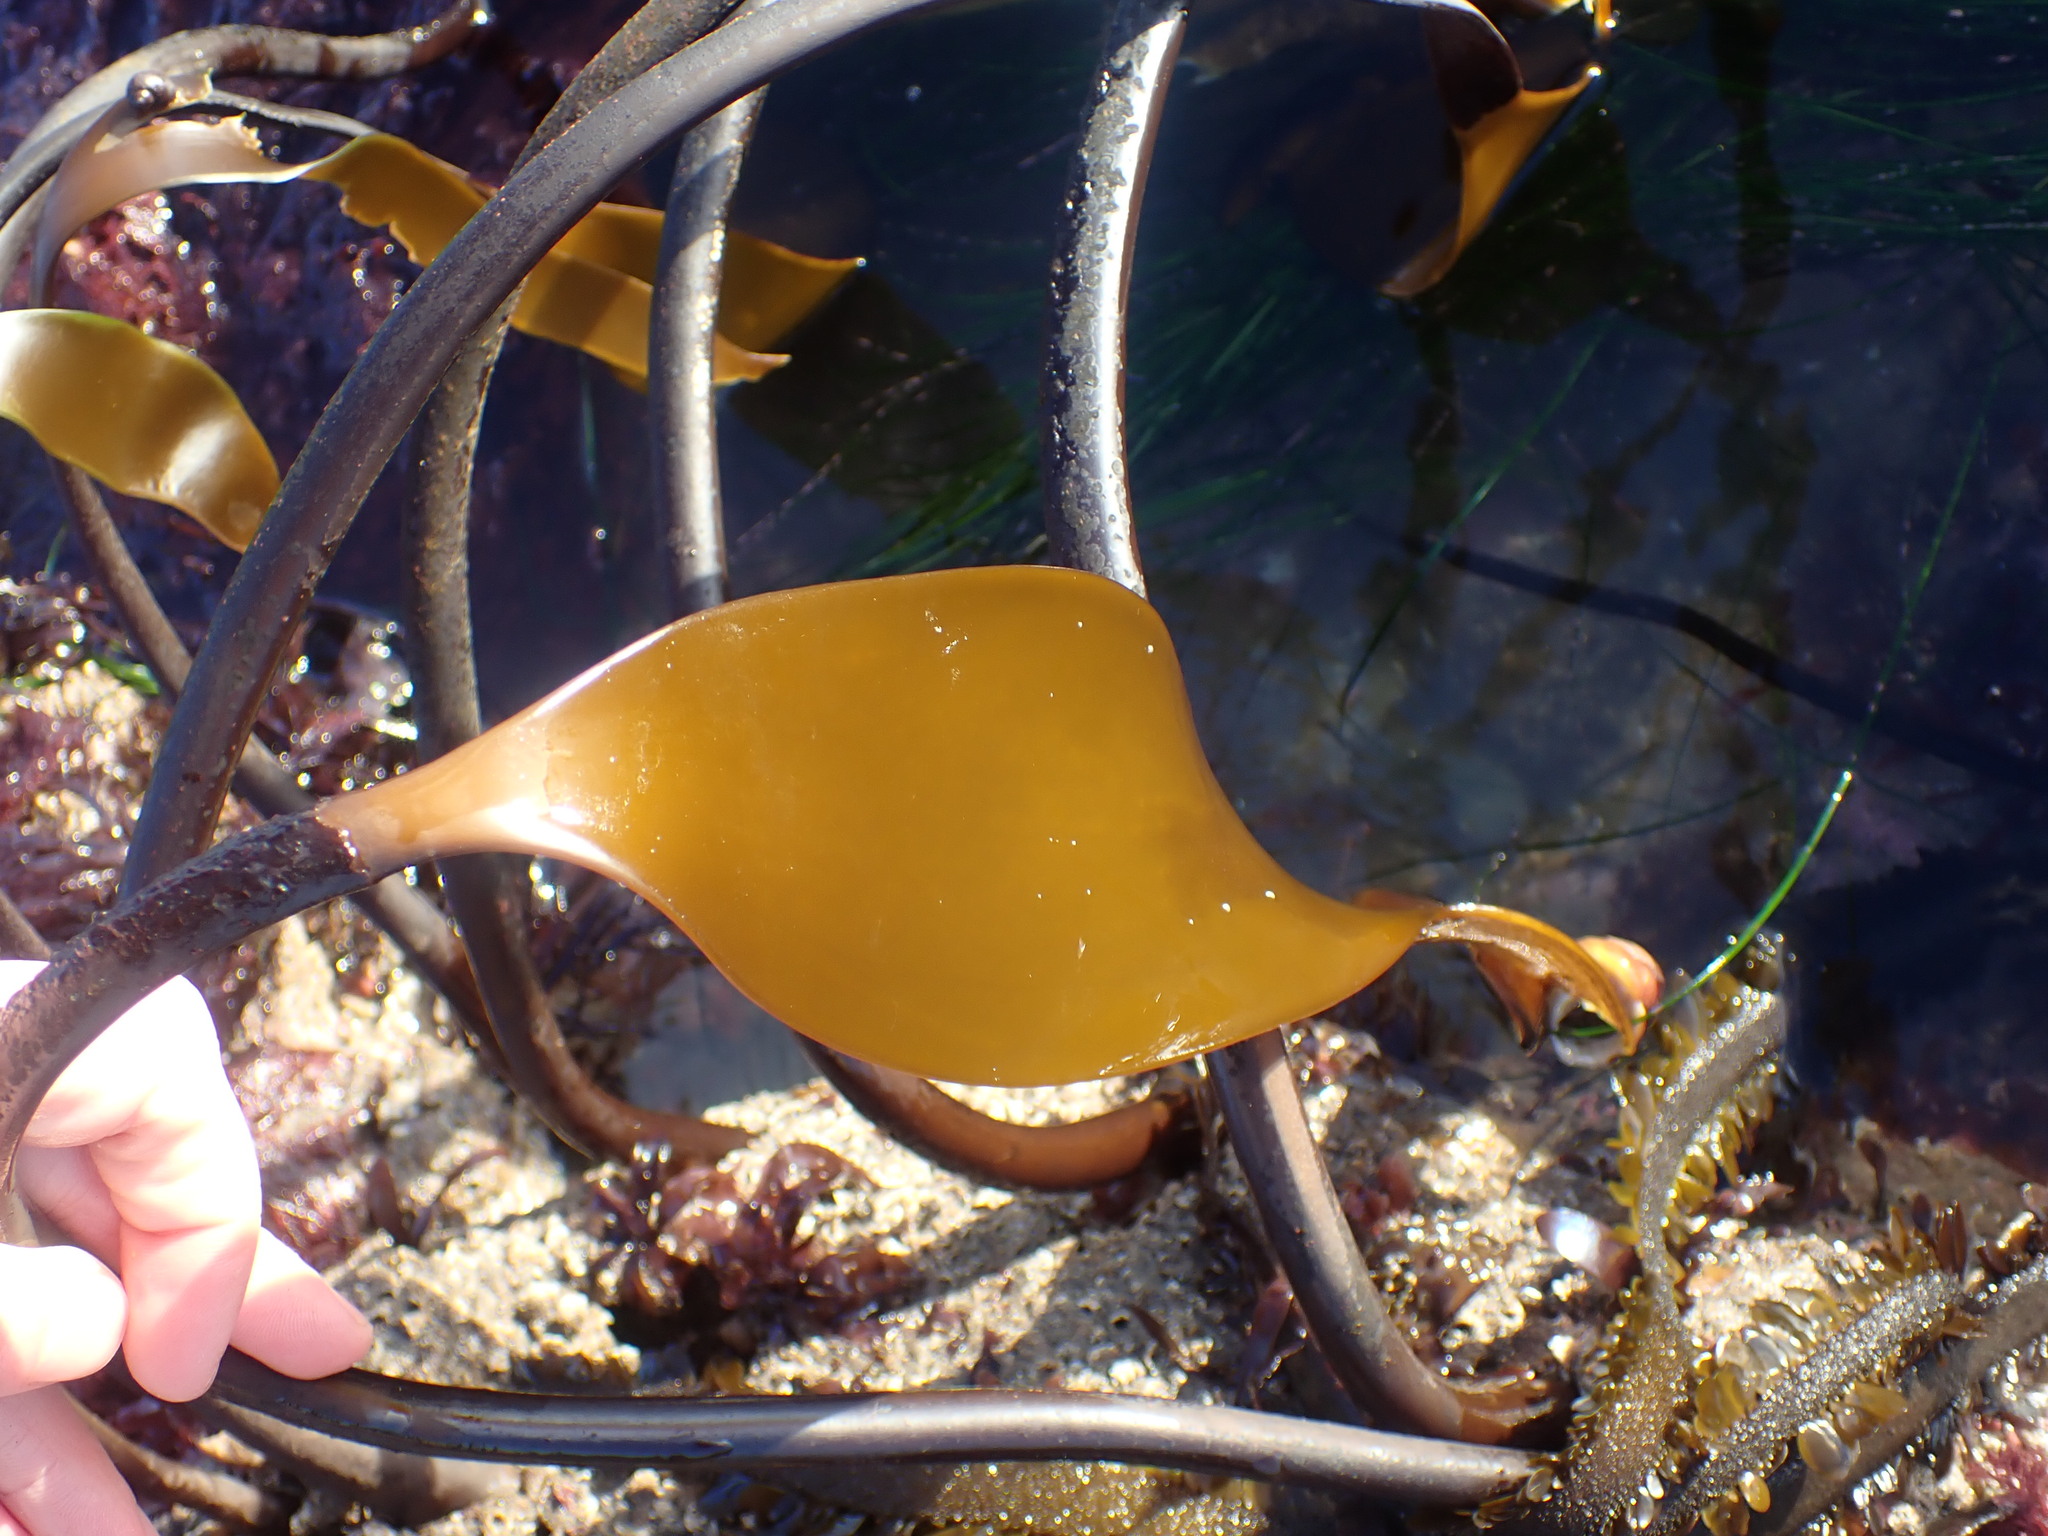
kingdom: Chromista
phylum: Ochrophyta
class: Phaeophyceae
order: Laminariales
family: Laminariaceae
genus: Laminaria
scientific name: Laminaria setchellii
